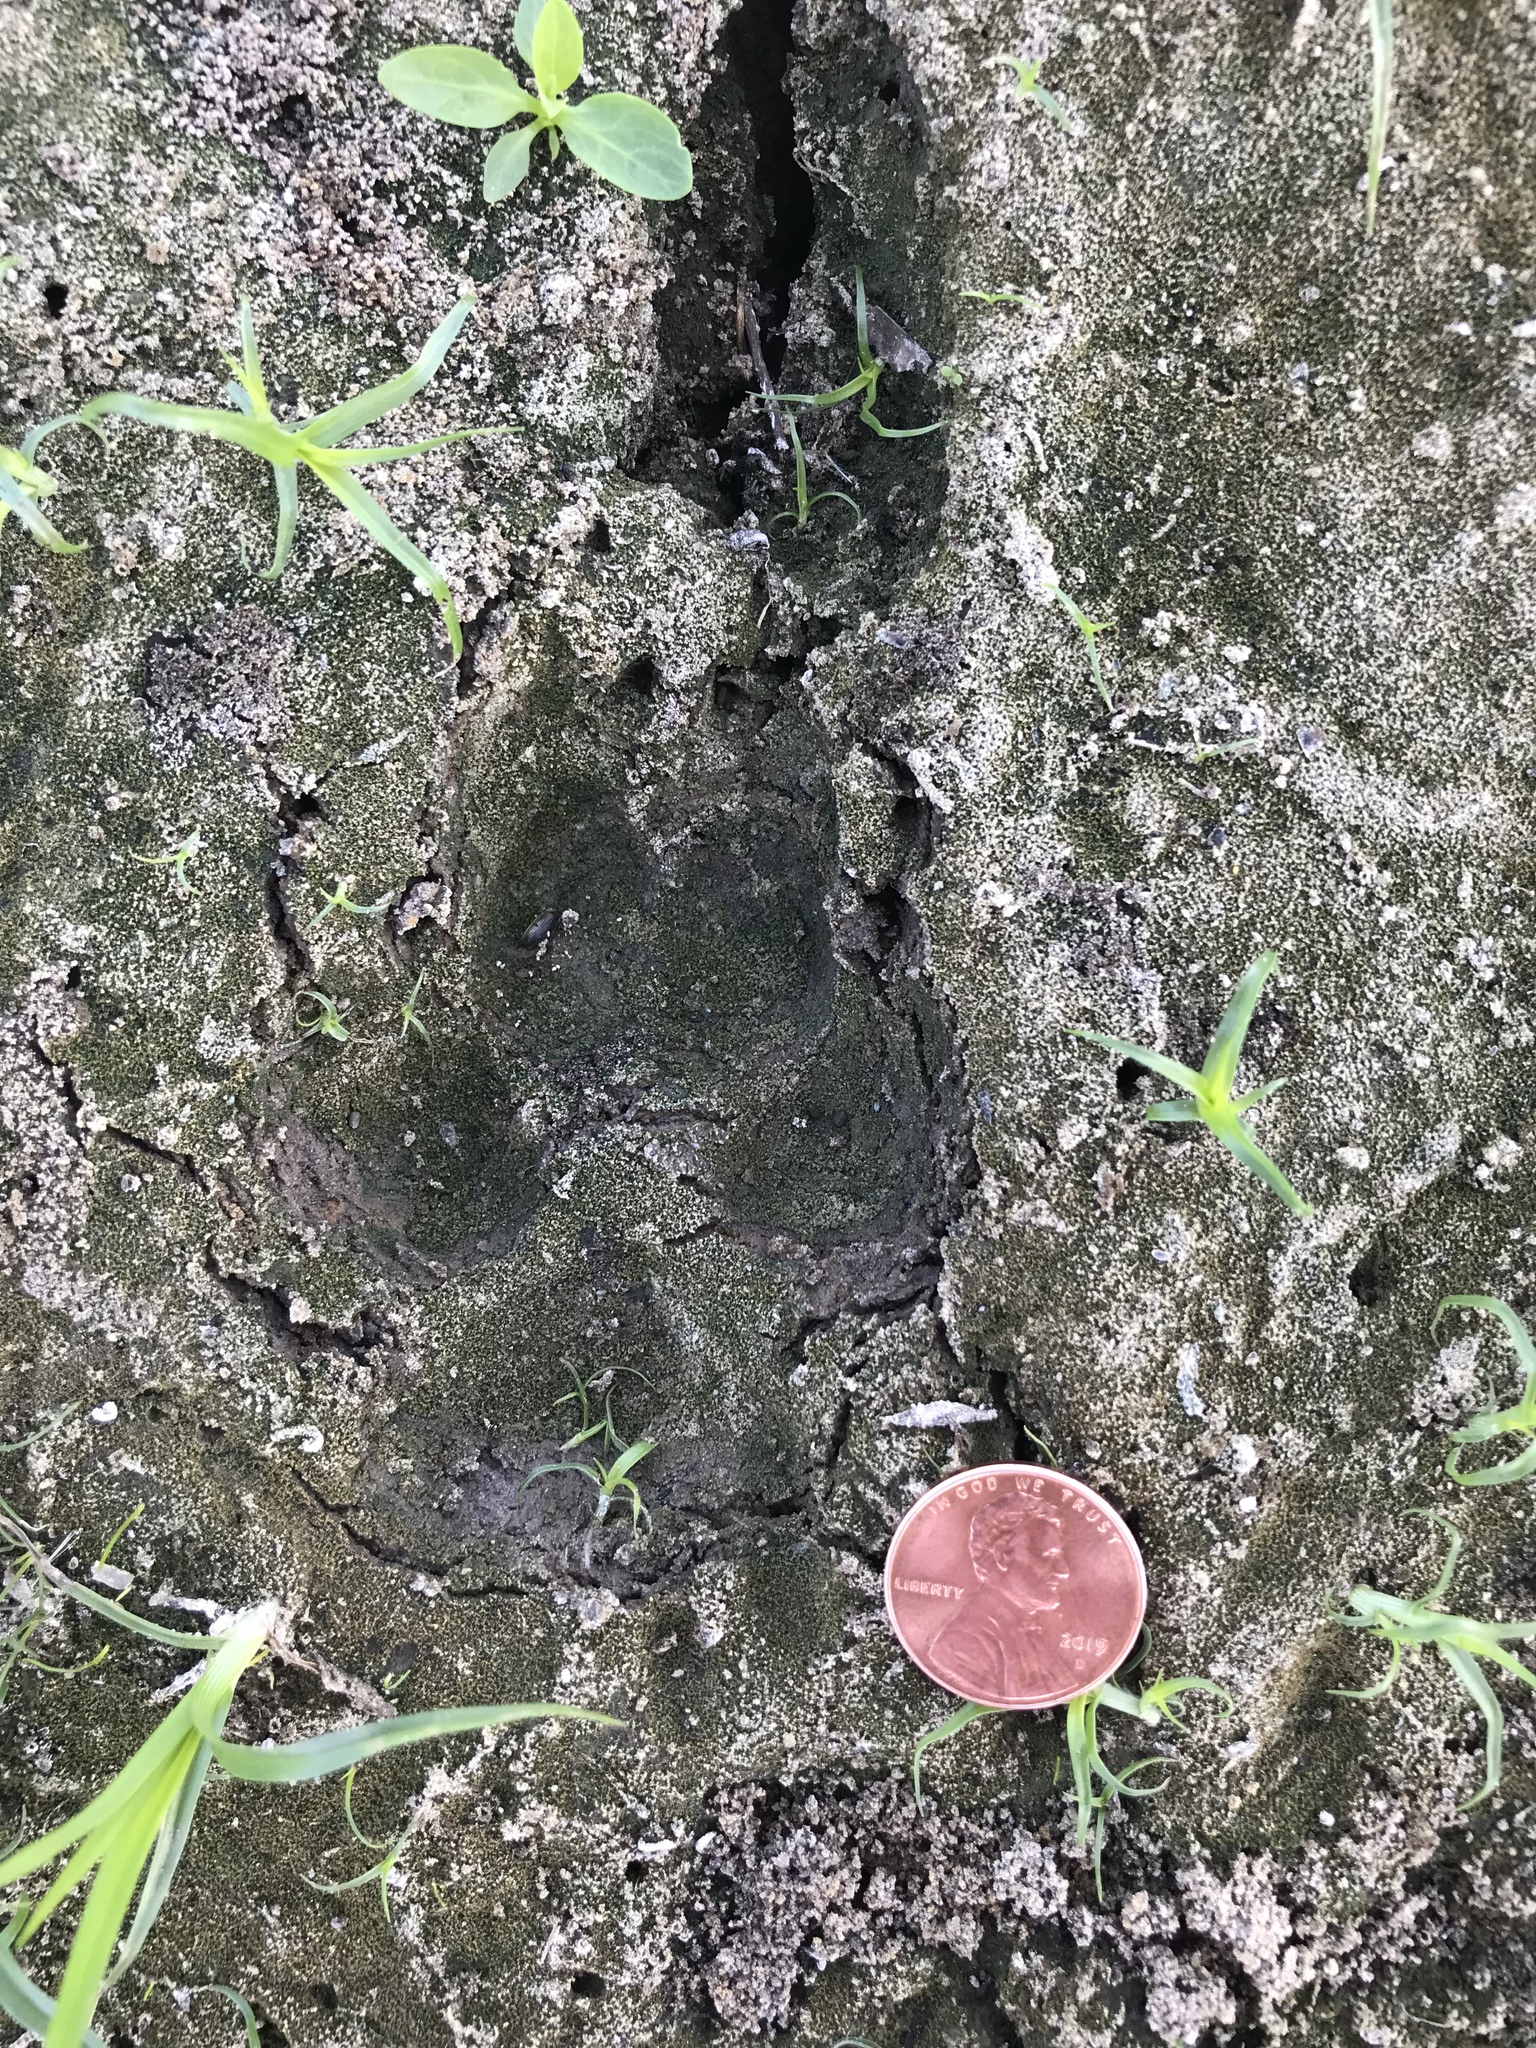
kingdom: Animalia
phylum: Chordata
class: Mammalia
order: Carnivora
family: Canidae
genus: Canis
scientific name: Canis latrans
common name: Coyote
